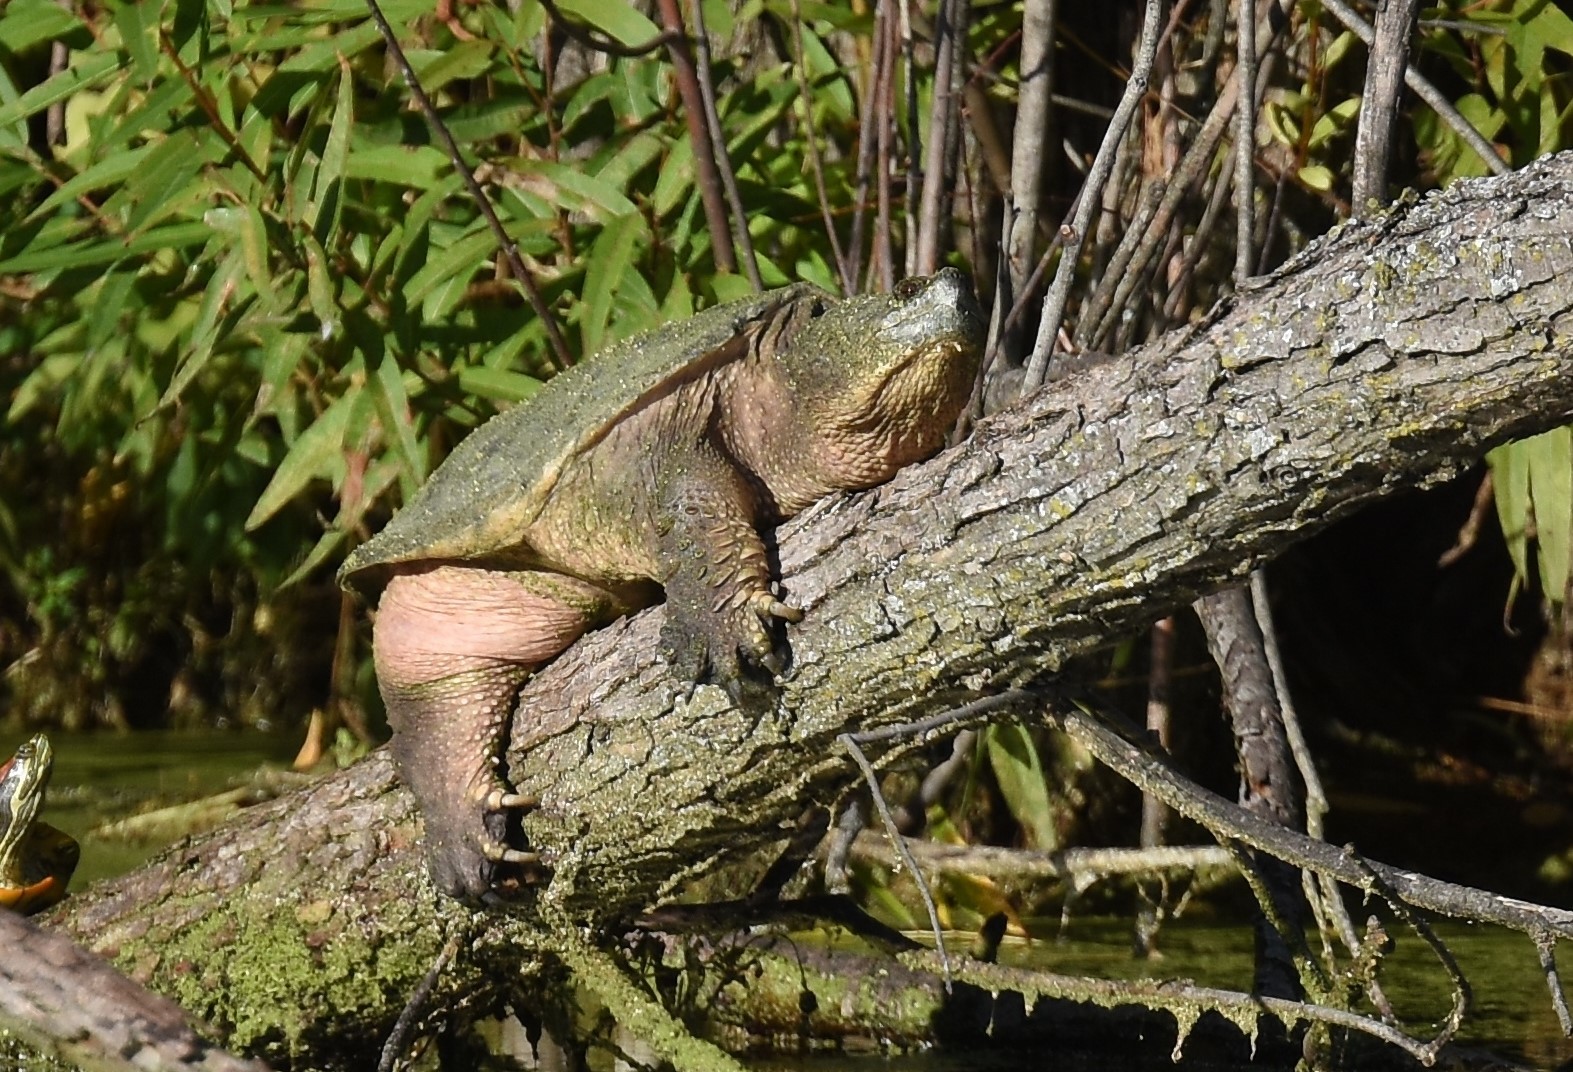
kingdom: Animalia
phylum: Chordata
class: Testudines
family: Chelydridae
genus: Chelydra
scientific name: Chelydra serpentina
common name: Common snapping turtle
